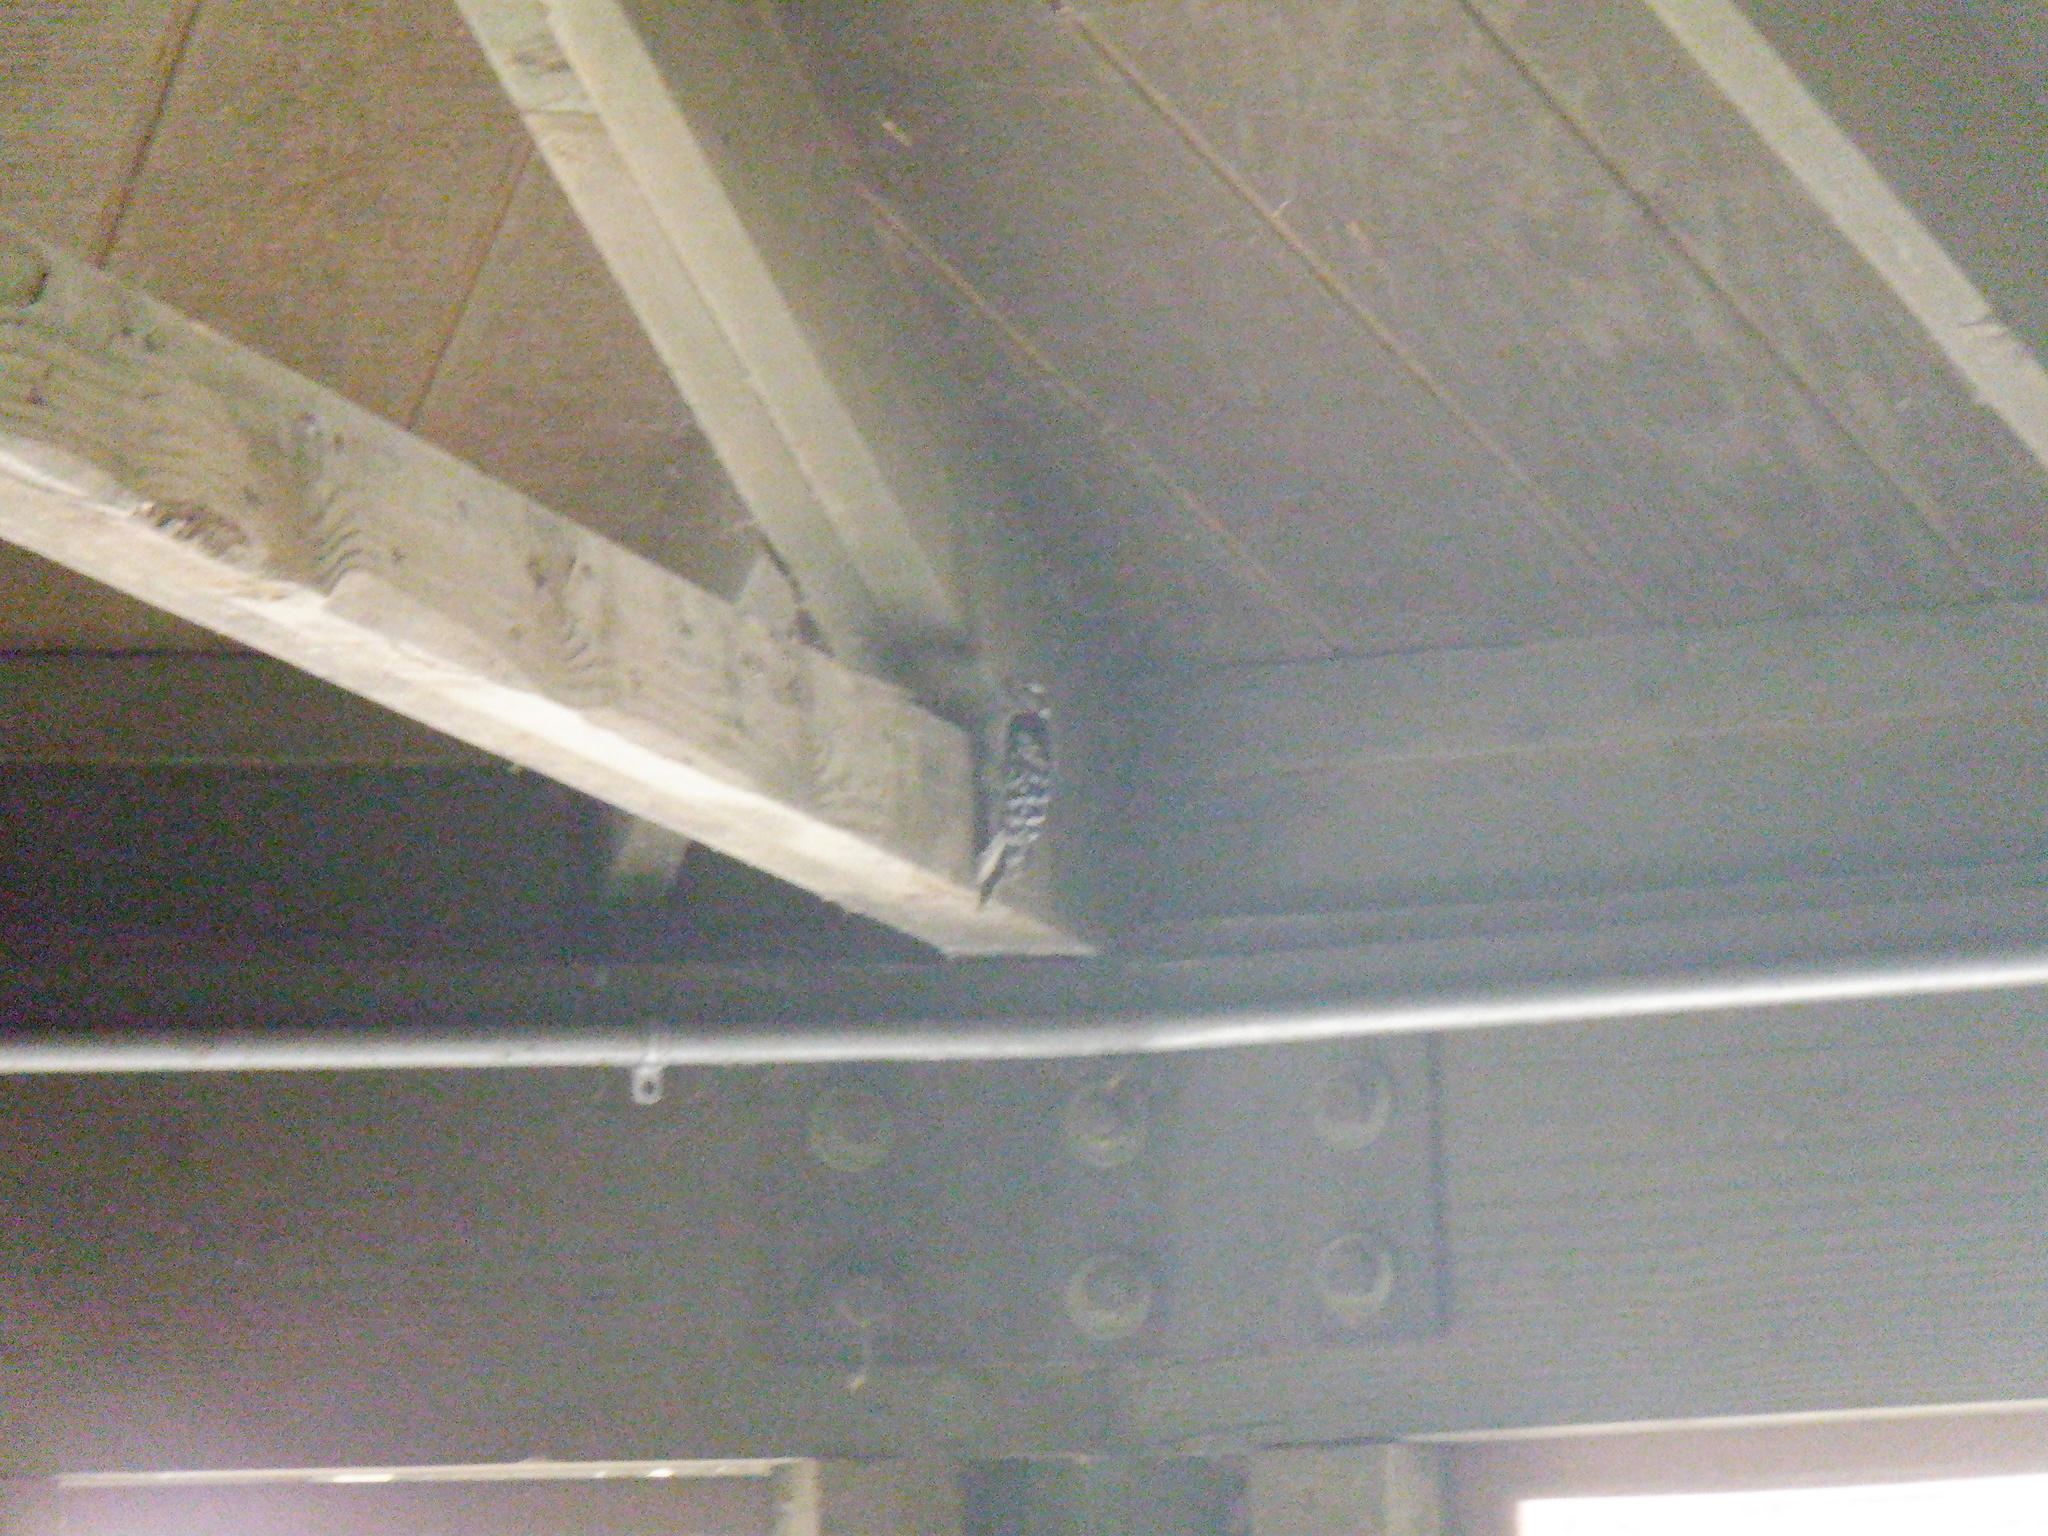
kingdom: Animalia
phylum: Chordata
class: Aves
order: Piciformes
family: Picidae
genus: Dryobates
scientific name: Dryobates pubescens
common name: Downy woodpecker
